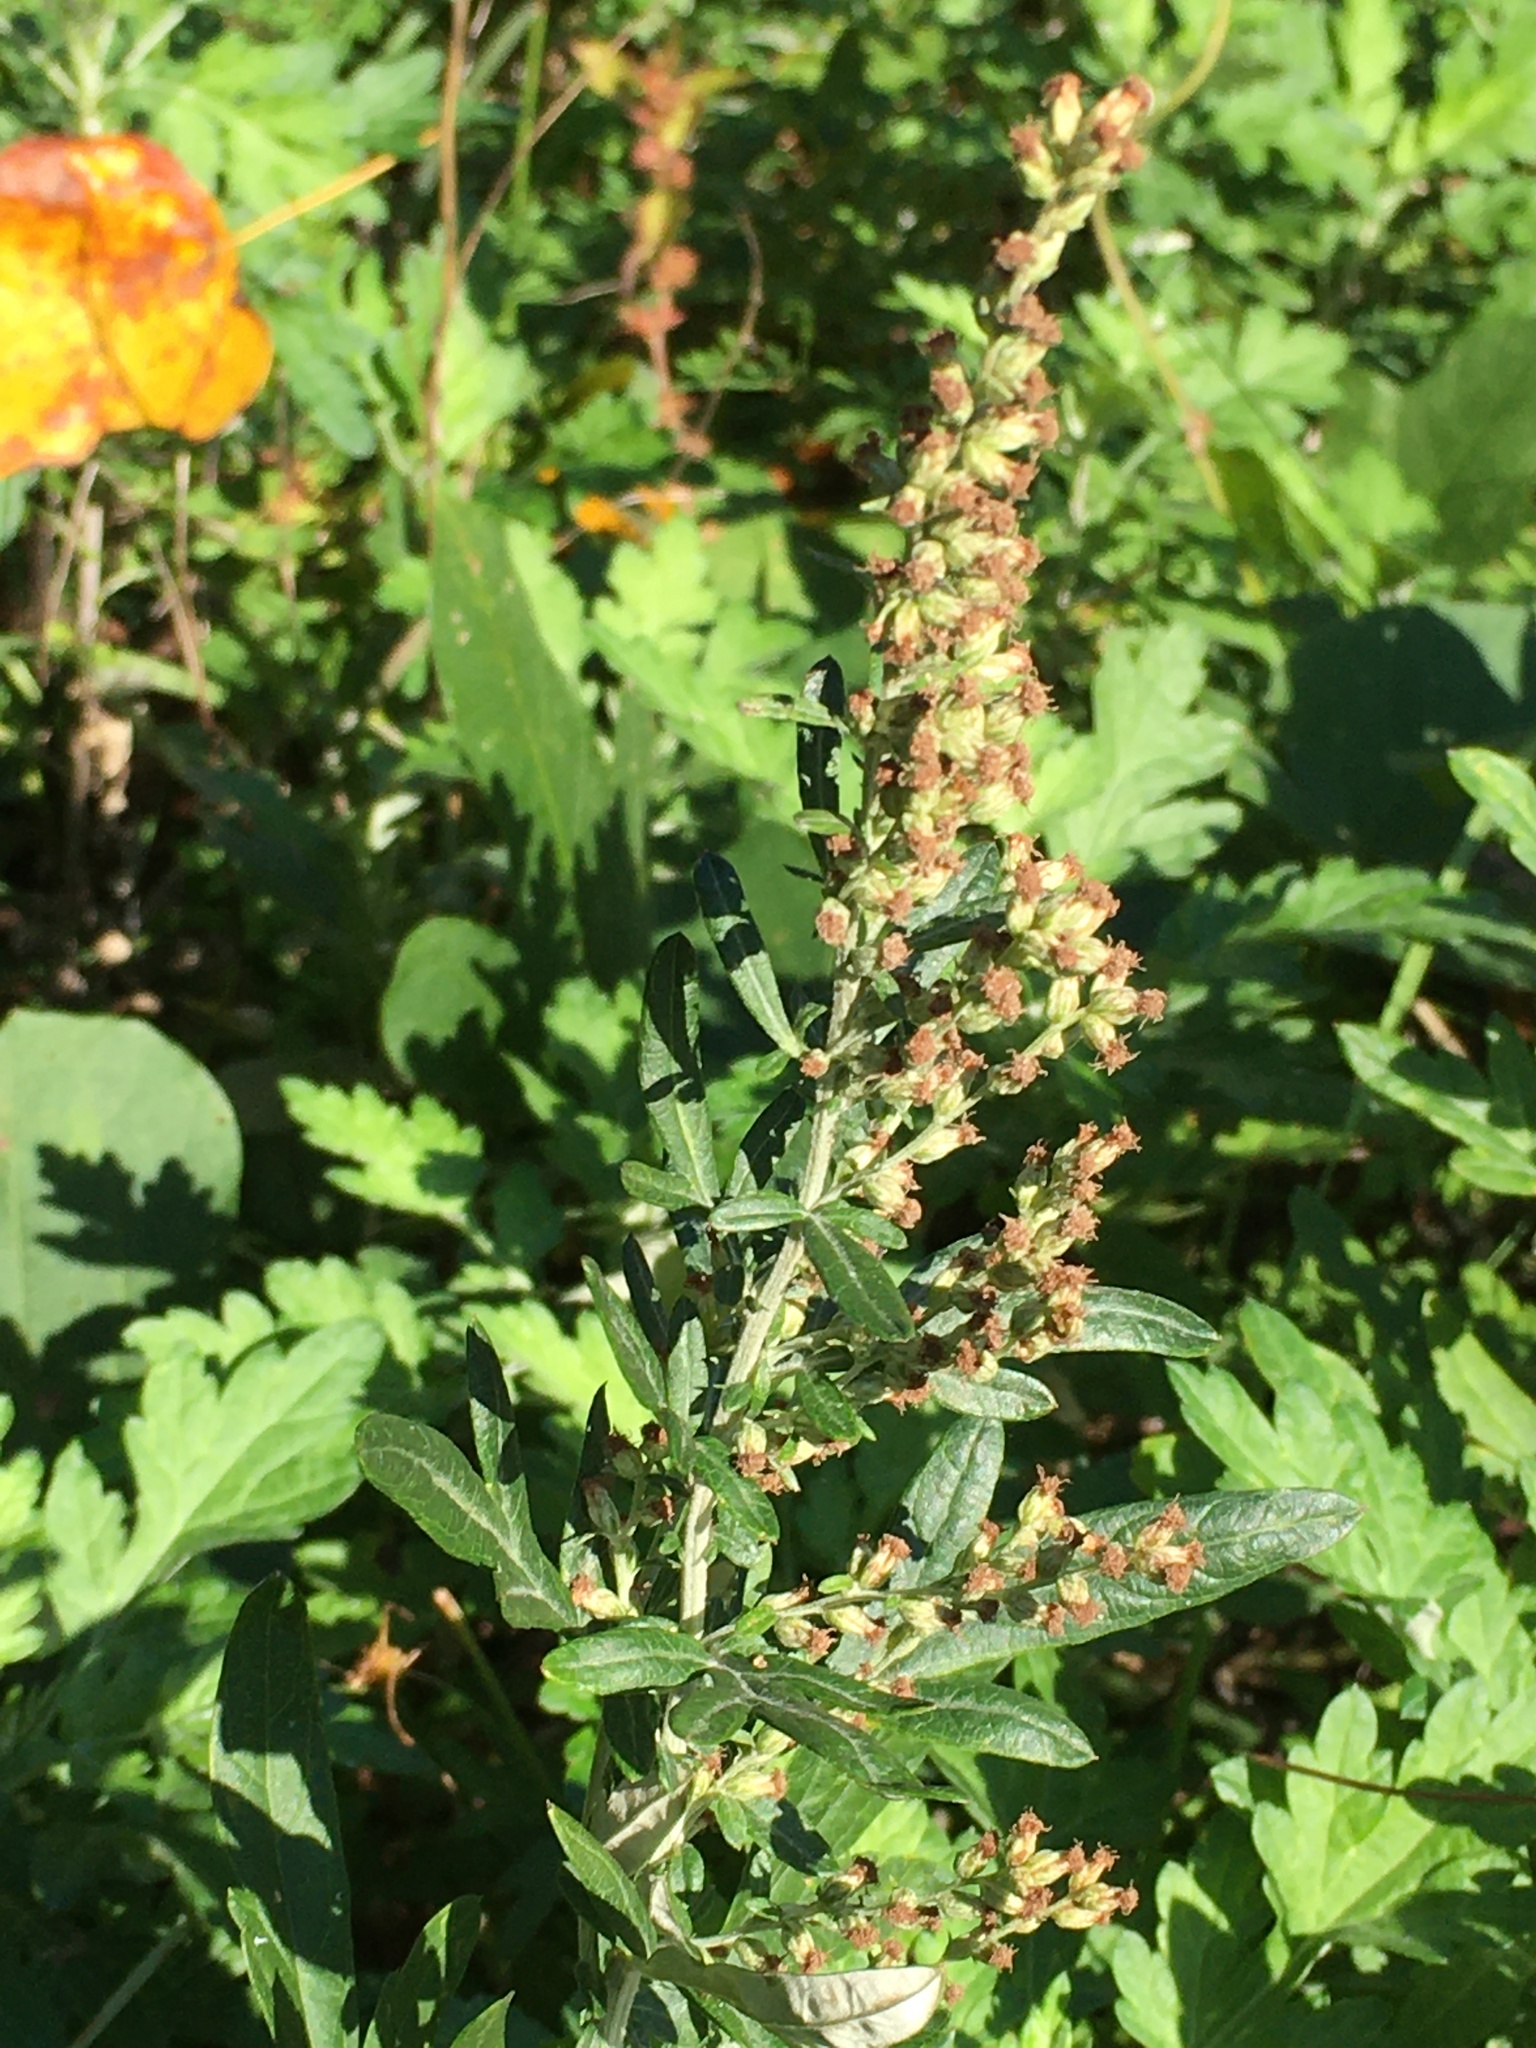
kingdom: Plantae
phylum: Tracheophyta
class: Magnoliopsida
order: Asterales
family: Asteraceae
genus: Artemisia
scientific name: Artemisia vulgaris
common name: Mugwort
